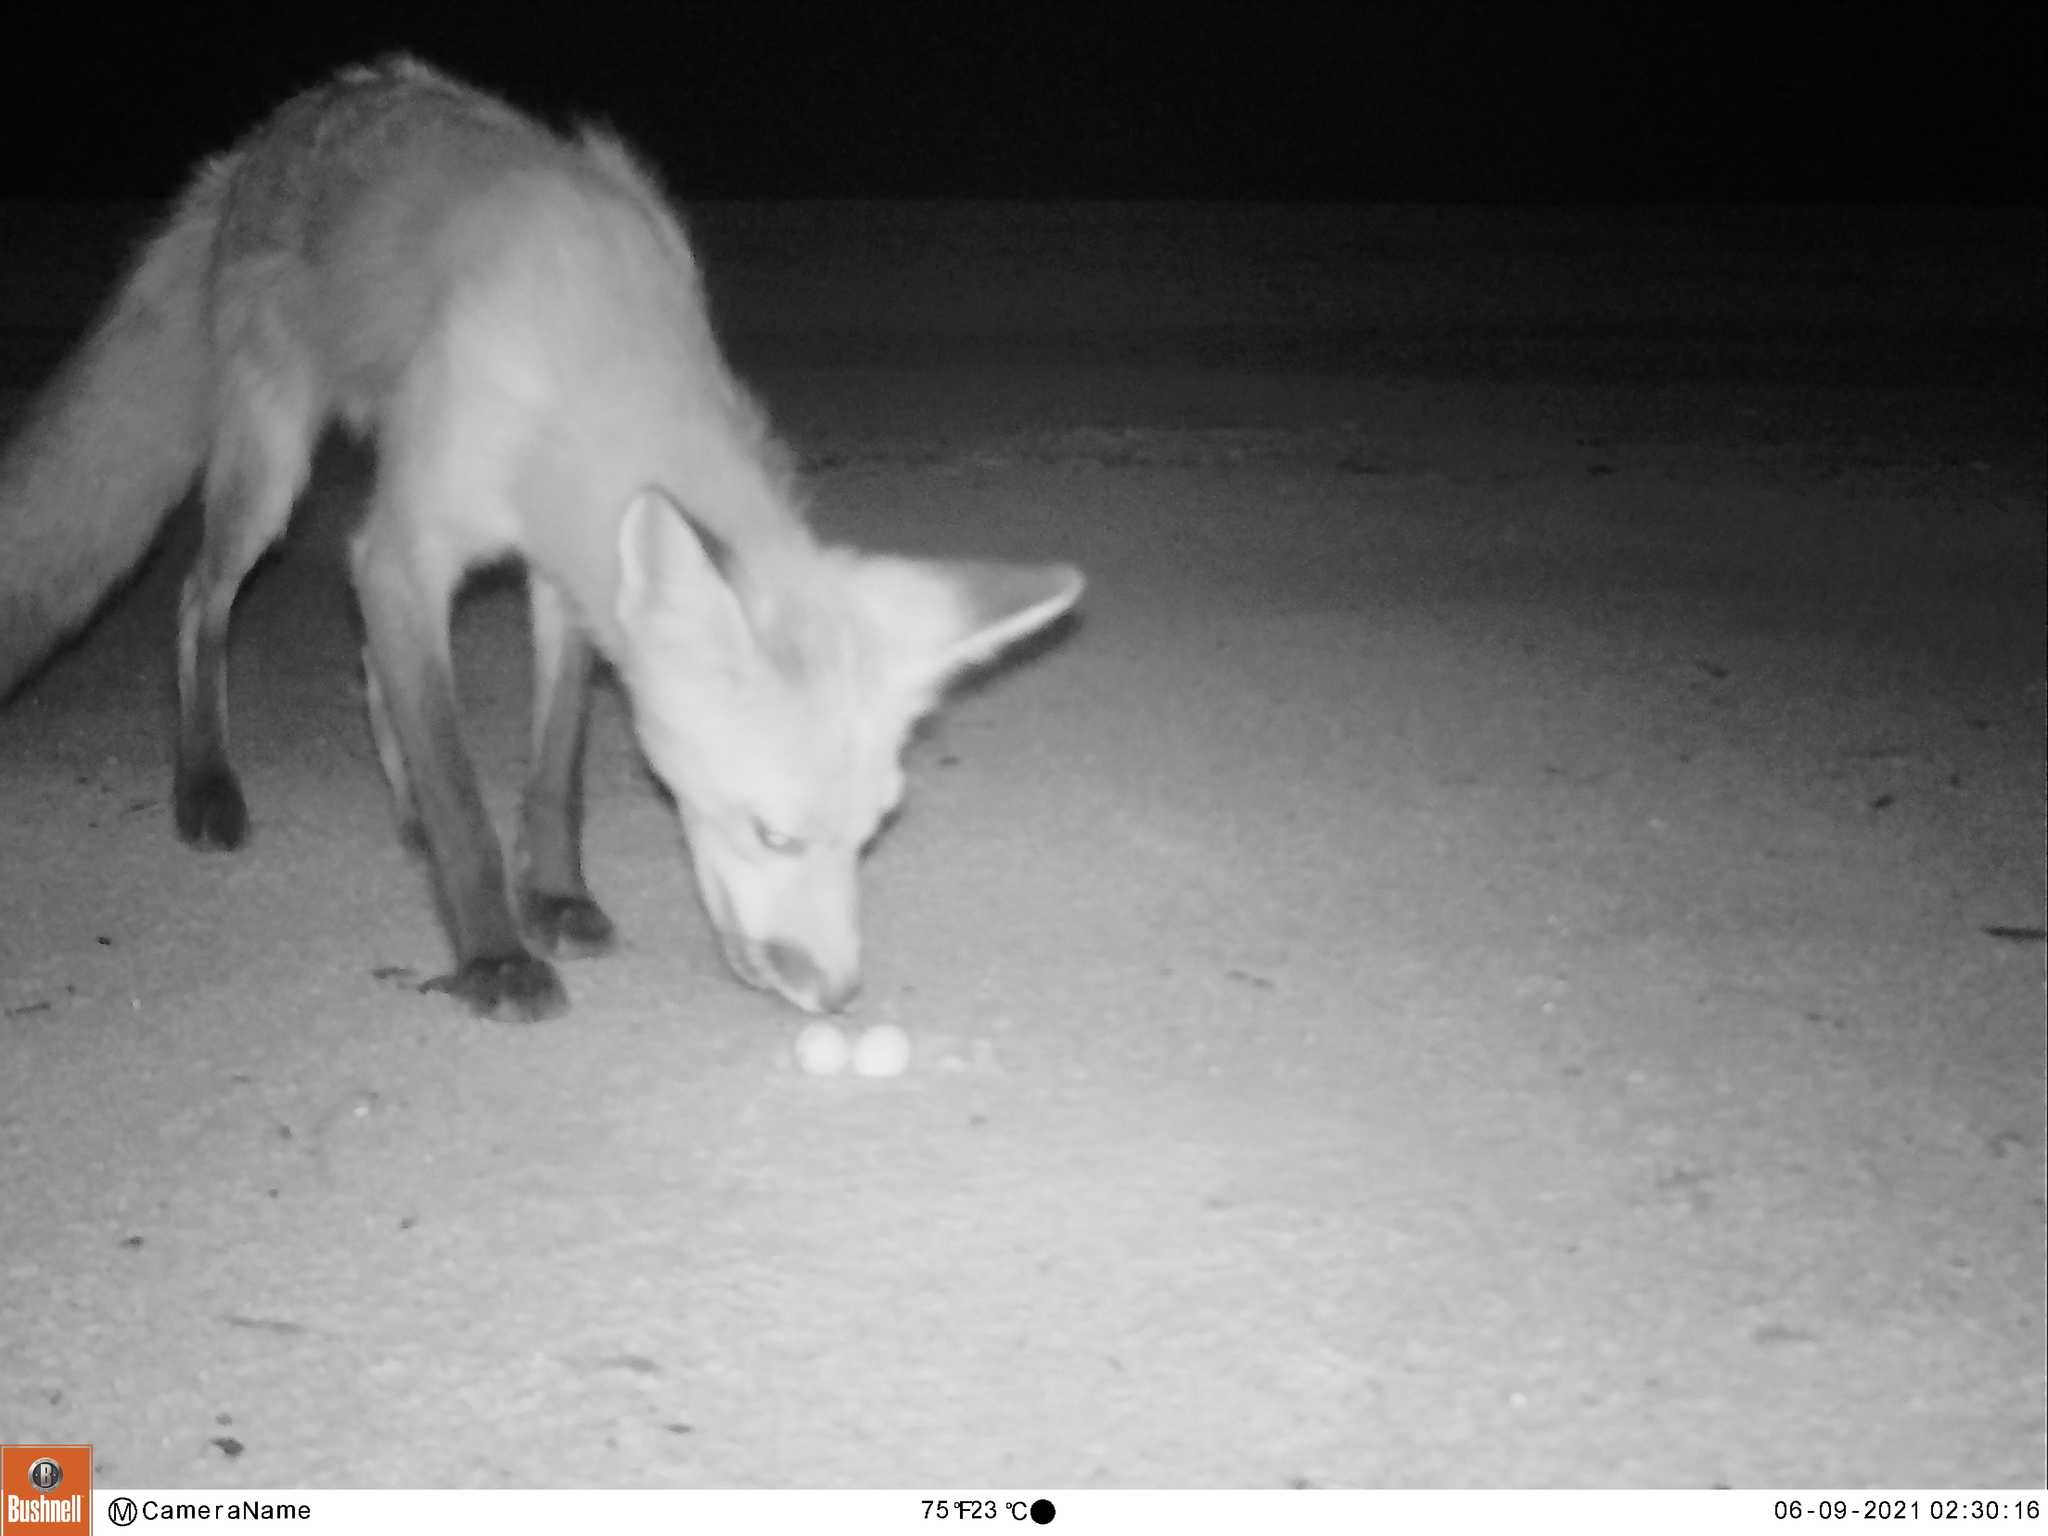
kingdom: Animalia
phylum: Chordata
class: Mammalia
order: Carnivora
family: Canidae
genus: Vulpes
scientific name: Vulpes vulpes
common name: Red fox
